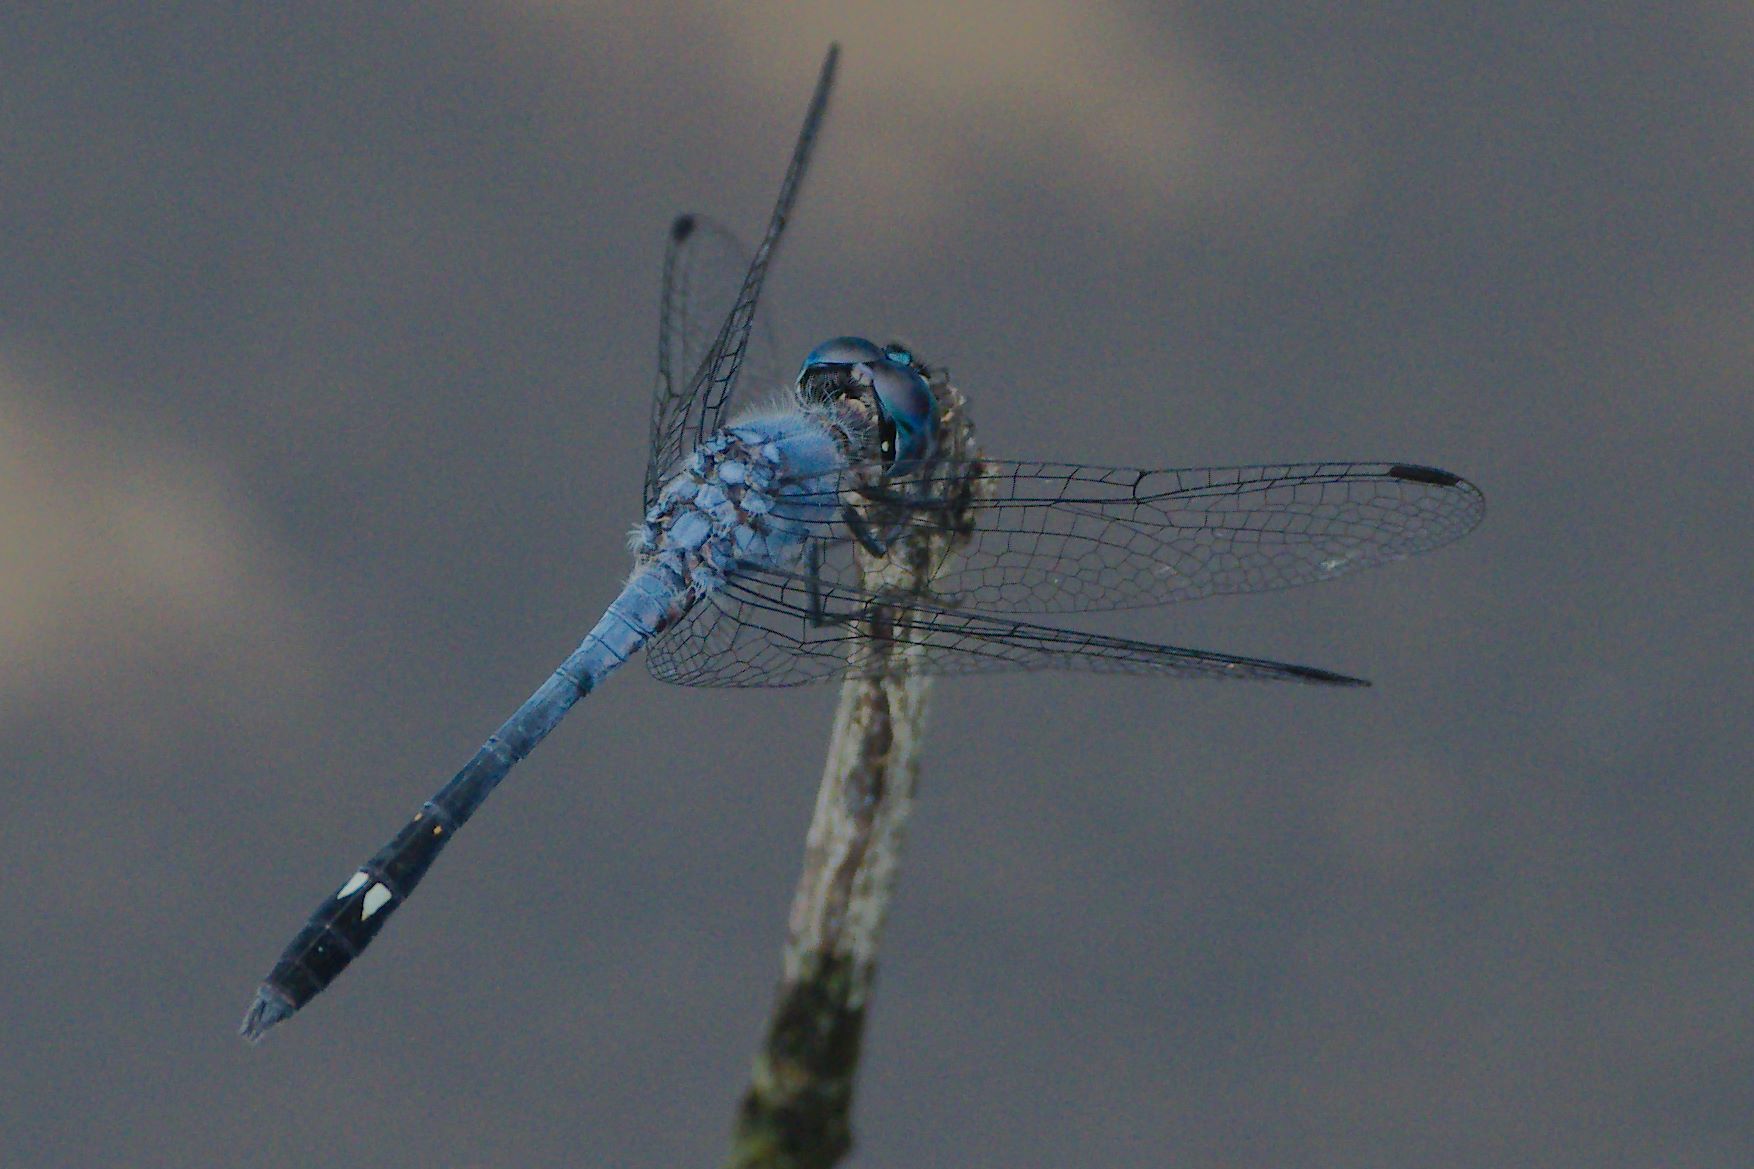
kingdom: Animalia
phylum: Arthropoda
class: Insecta
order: Odonata
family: Libellulidae
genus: Micrathyria
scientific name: Micrathyria aequalis
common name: Spot-tailed dasher
